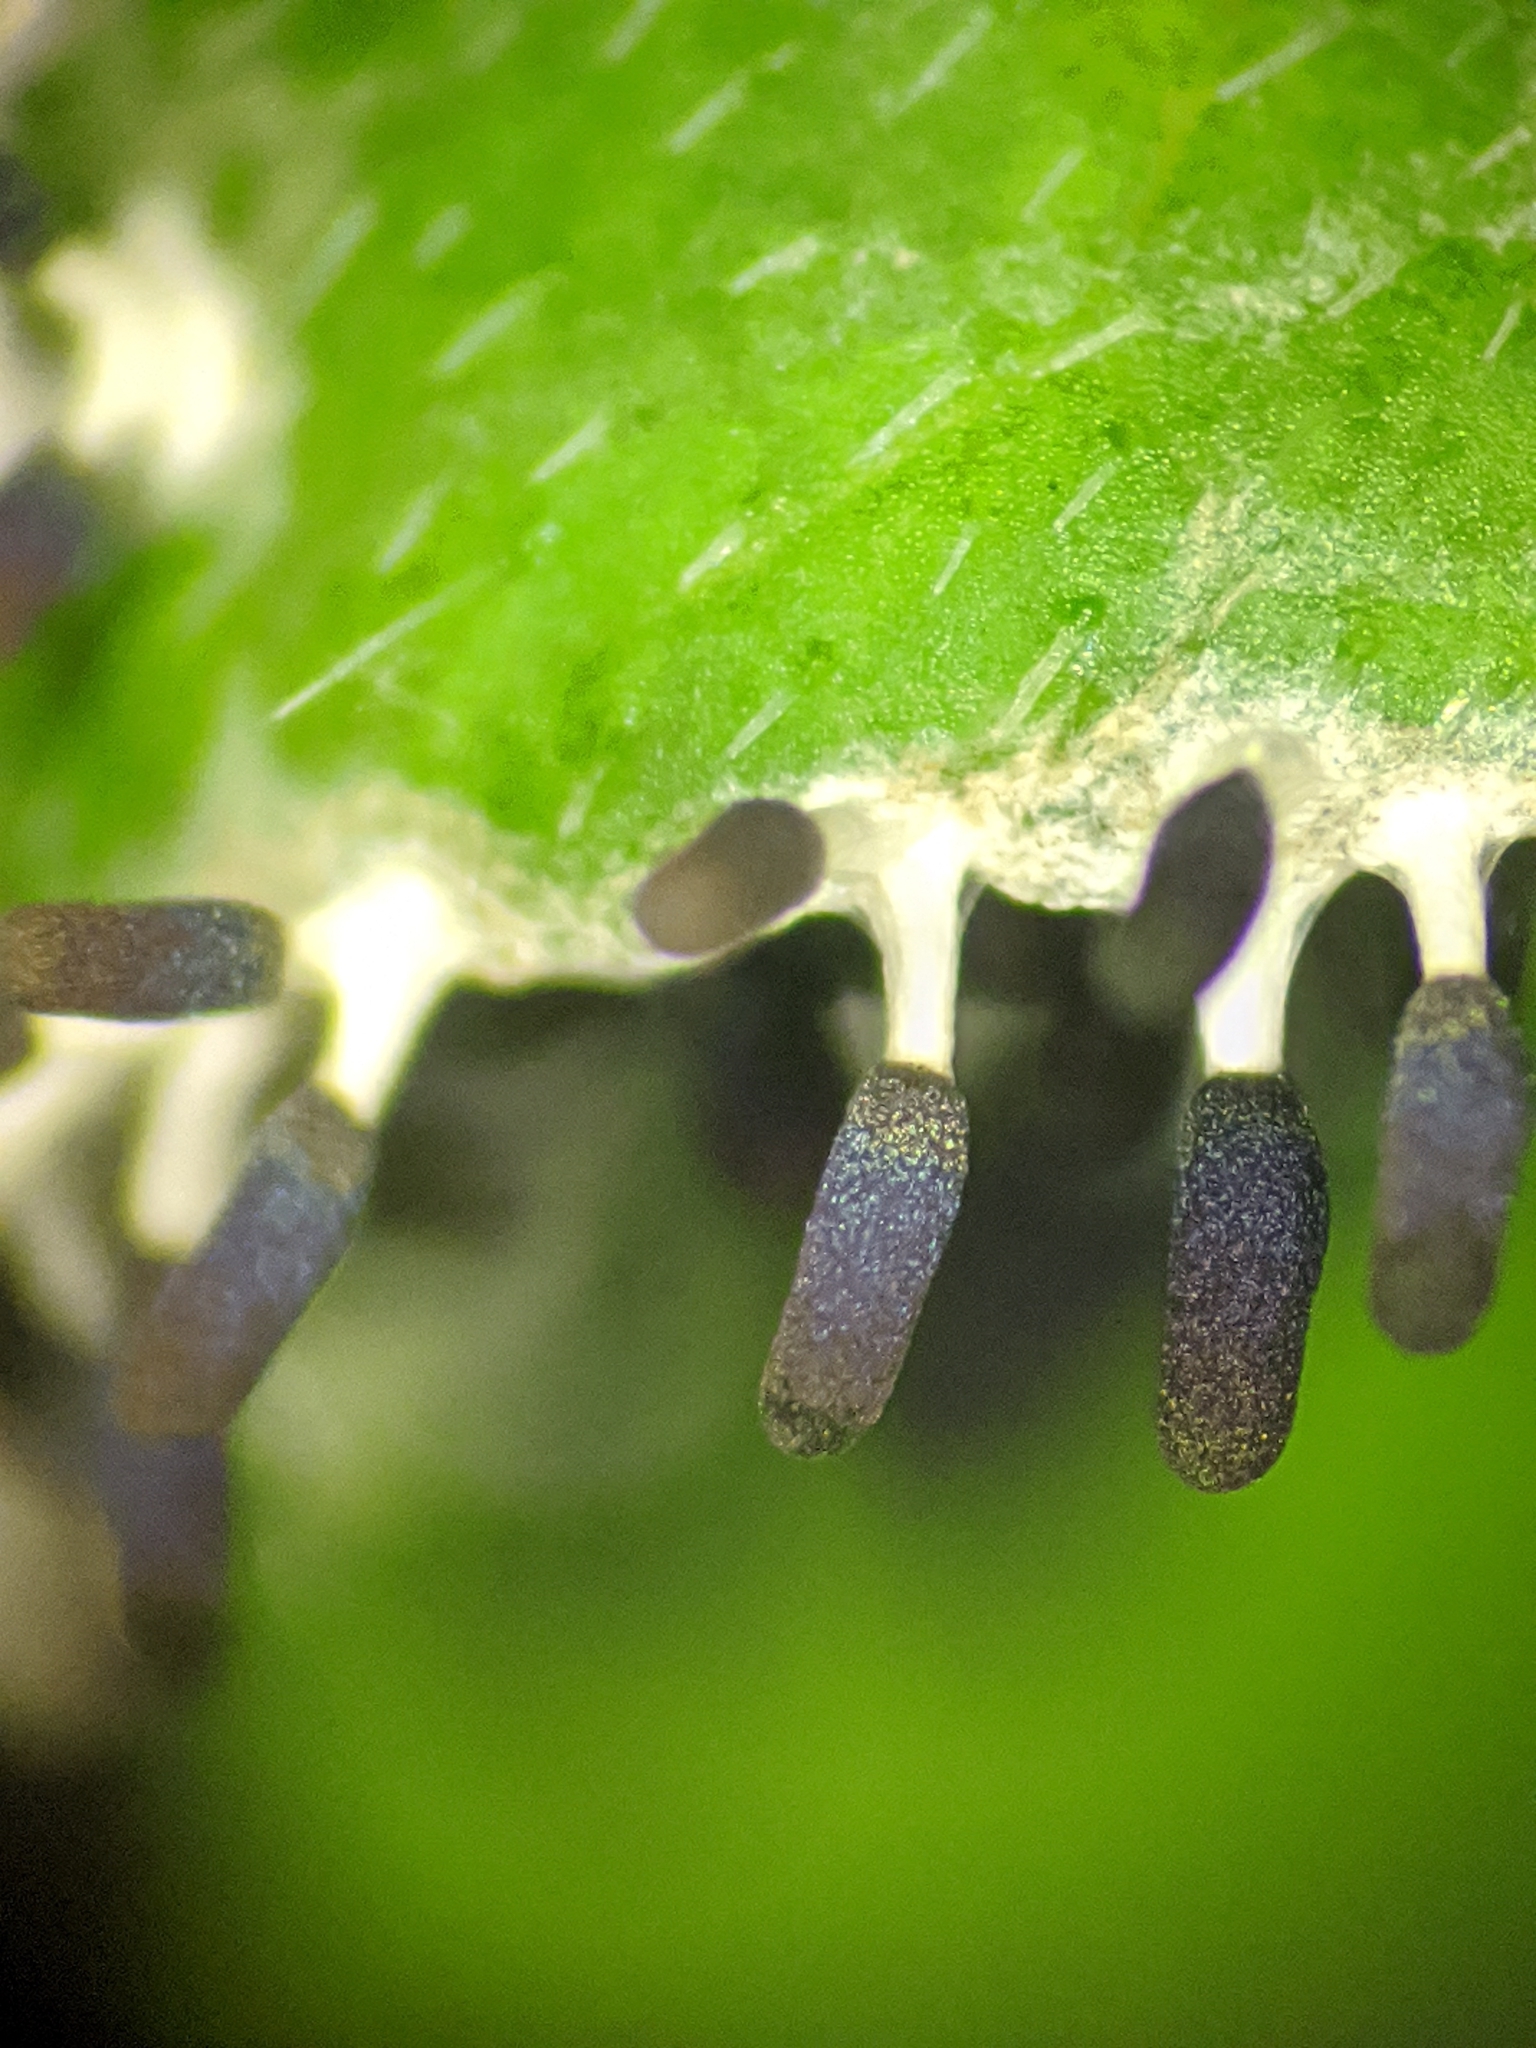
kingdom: Protozoa
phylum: Mycetozoa
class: Myxomycetes
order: Physarales
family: Didymiaceae
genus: Diachea
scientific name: Diachea leucopodia
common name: White-footed slime
